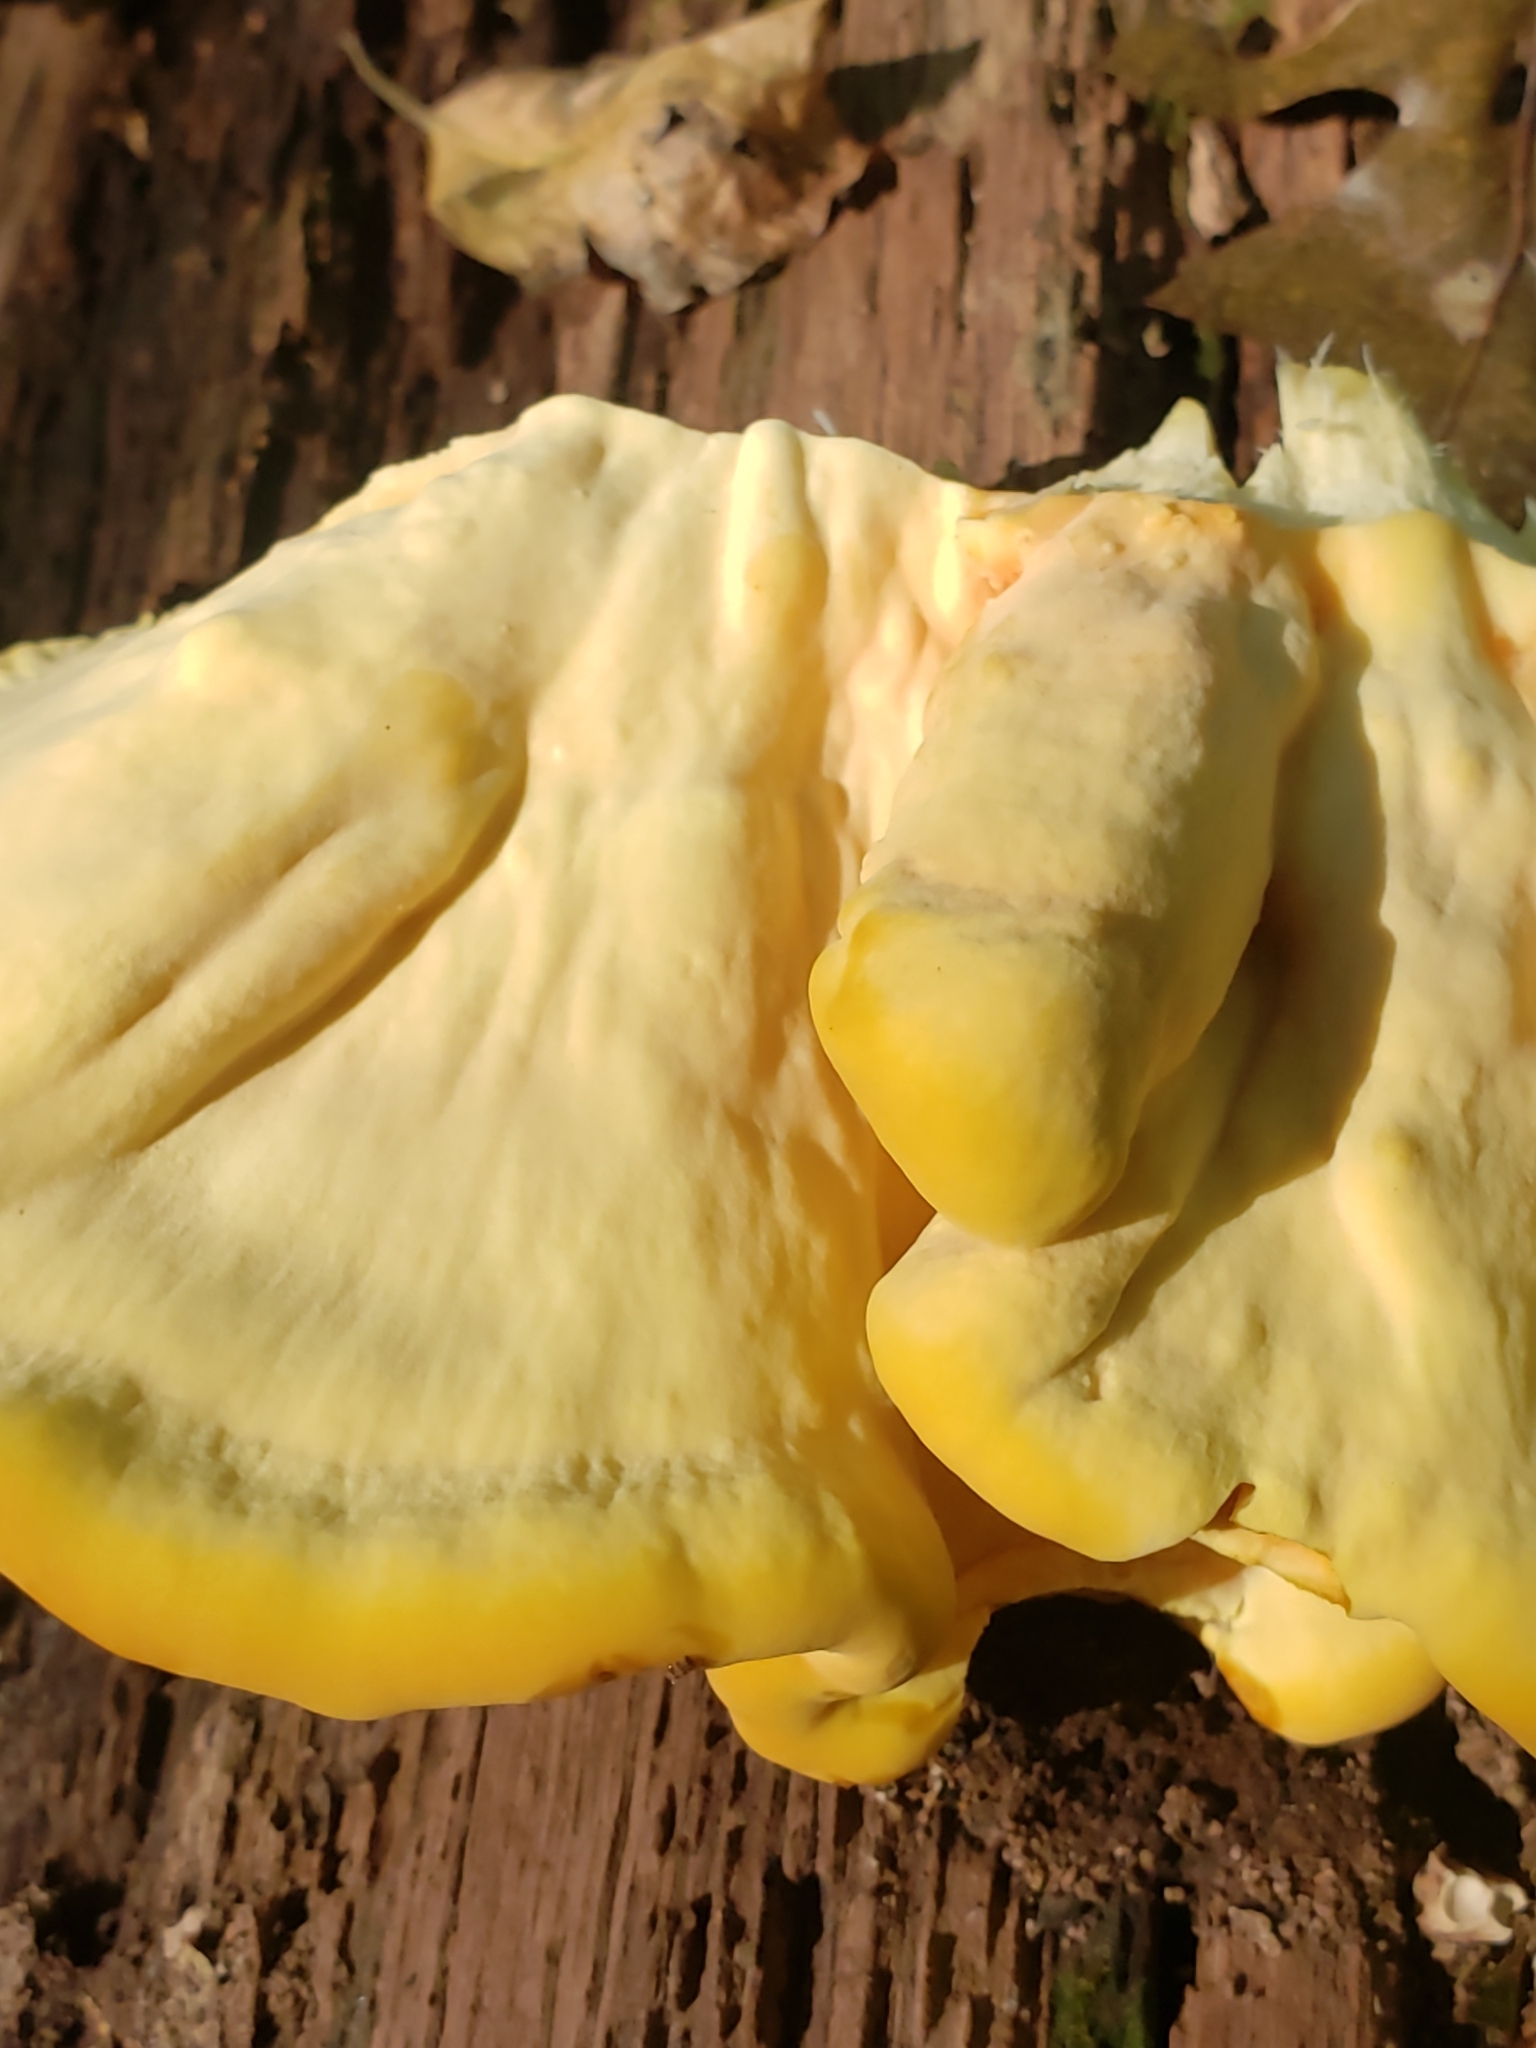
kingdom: Fungi
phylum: Basidiomycota
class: Agaricomycetes
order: Polyporales
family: Laetiporaceae
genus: Laetiporus
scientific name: Laetiporus sulphureus
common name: Chicken of the woods
